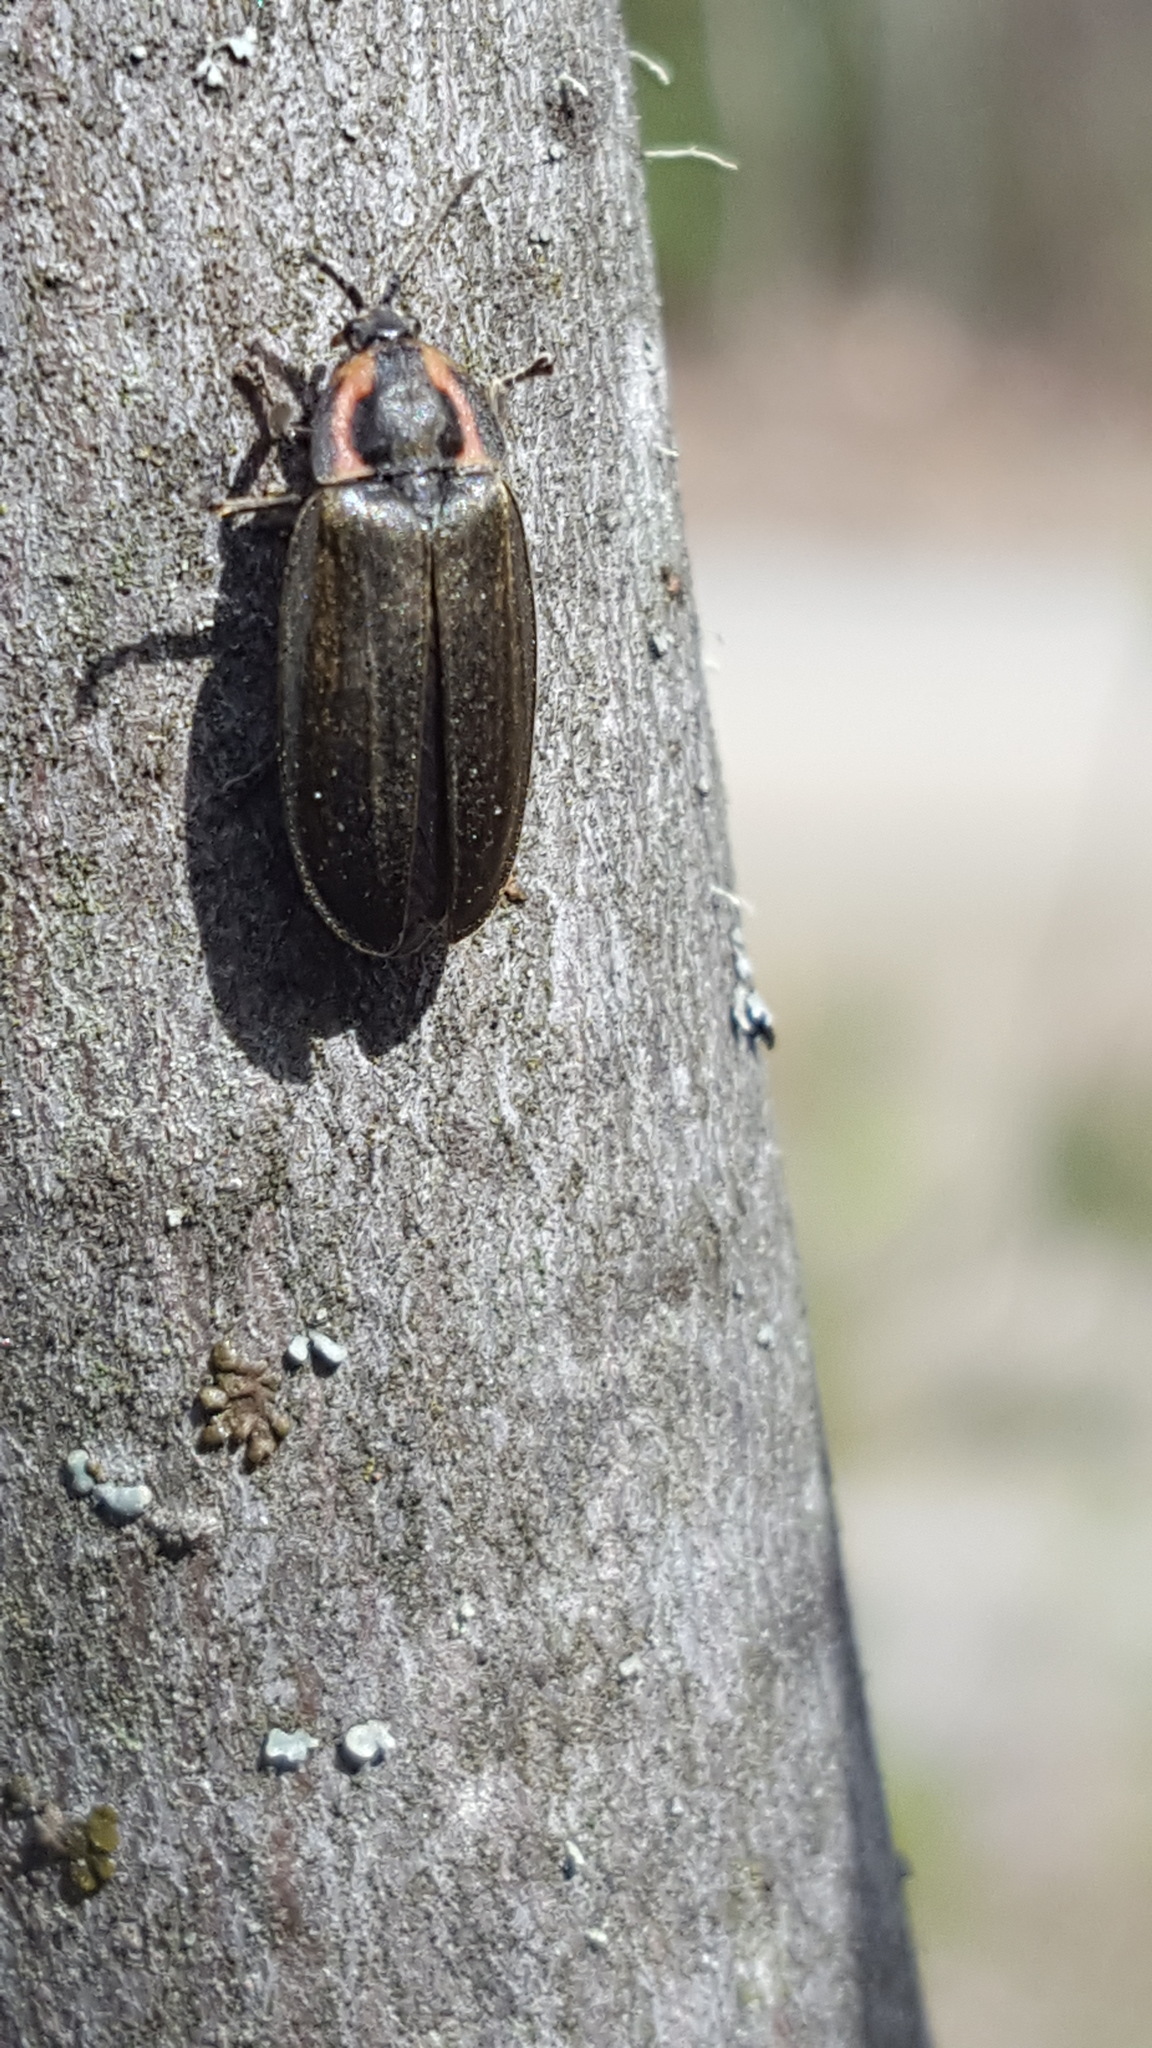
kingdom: Animalia
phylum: Arthropoda
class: Insecta
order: Coleoptera
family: Lampyridae
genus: Photinus
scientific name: Photinus corrusca
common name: Winter firefly
